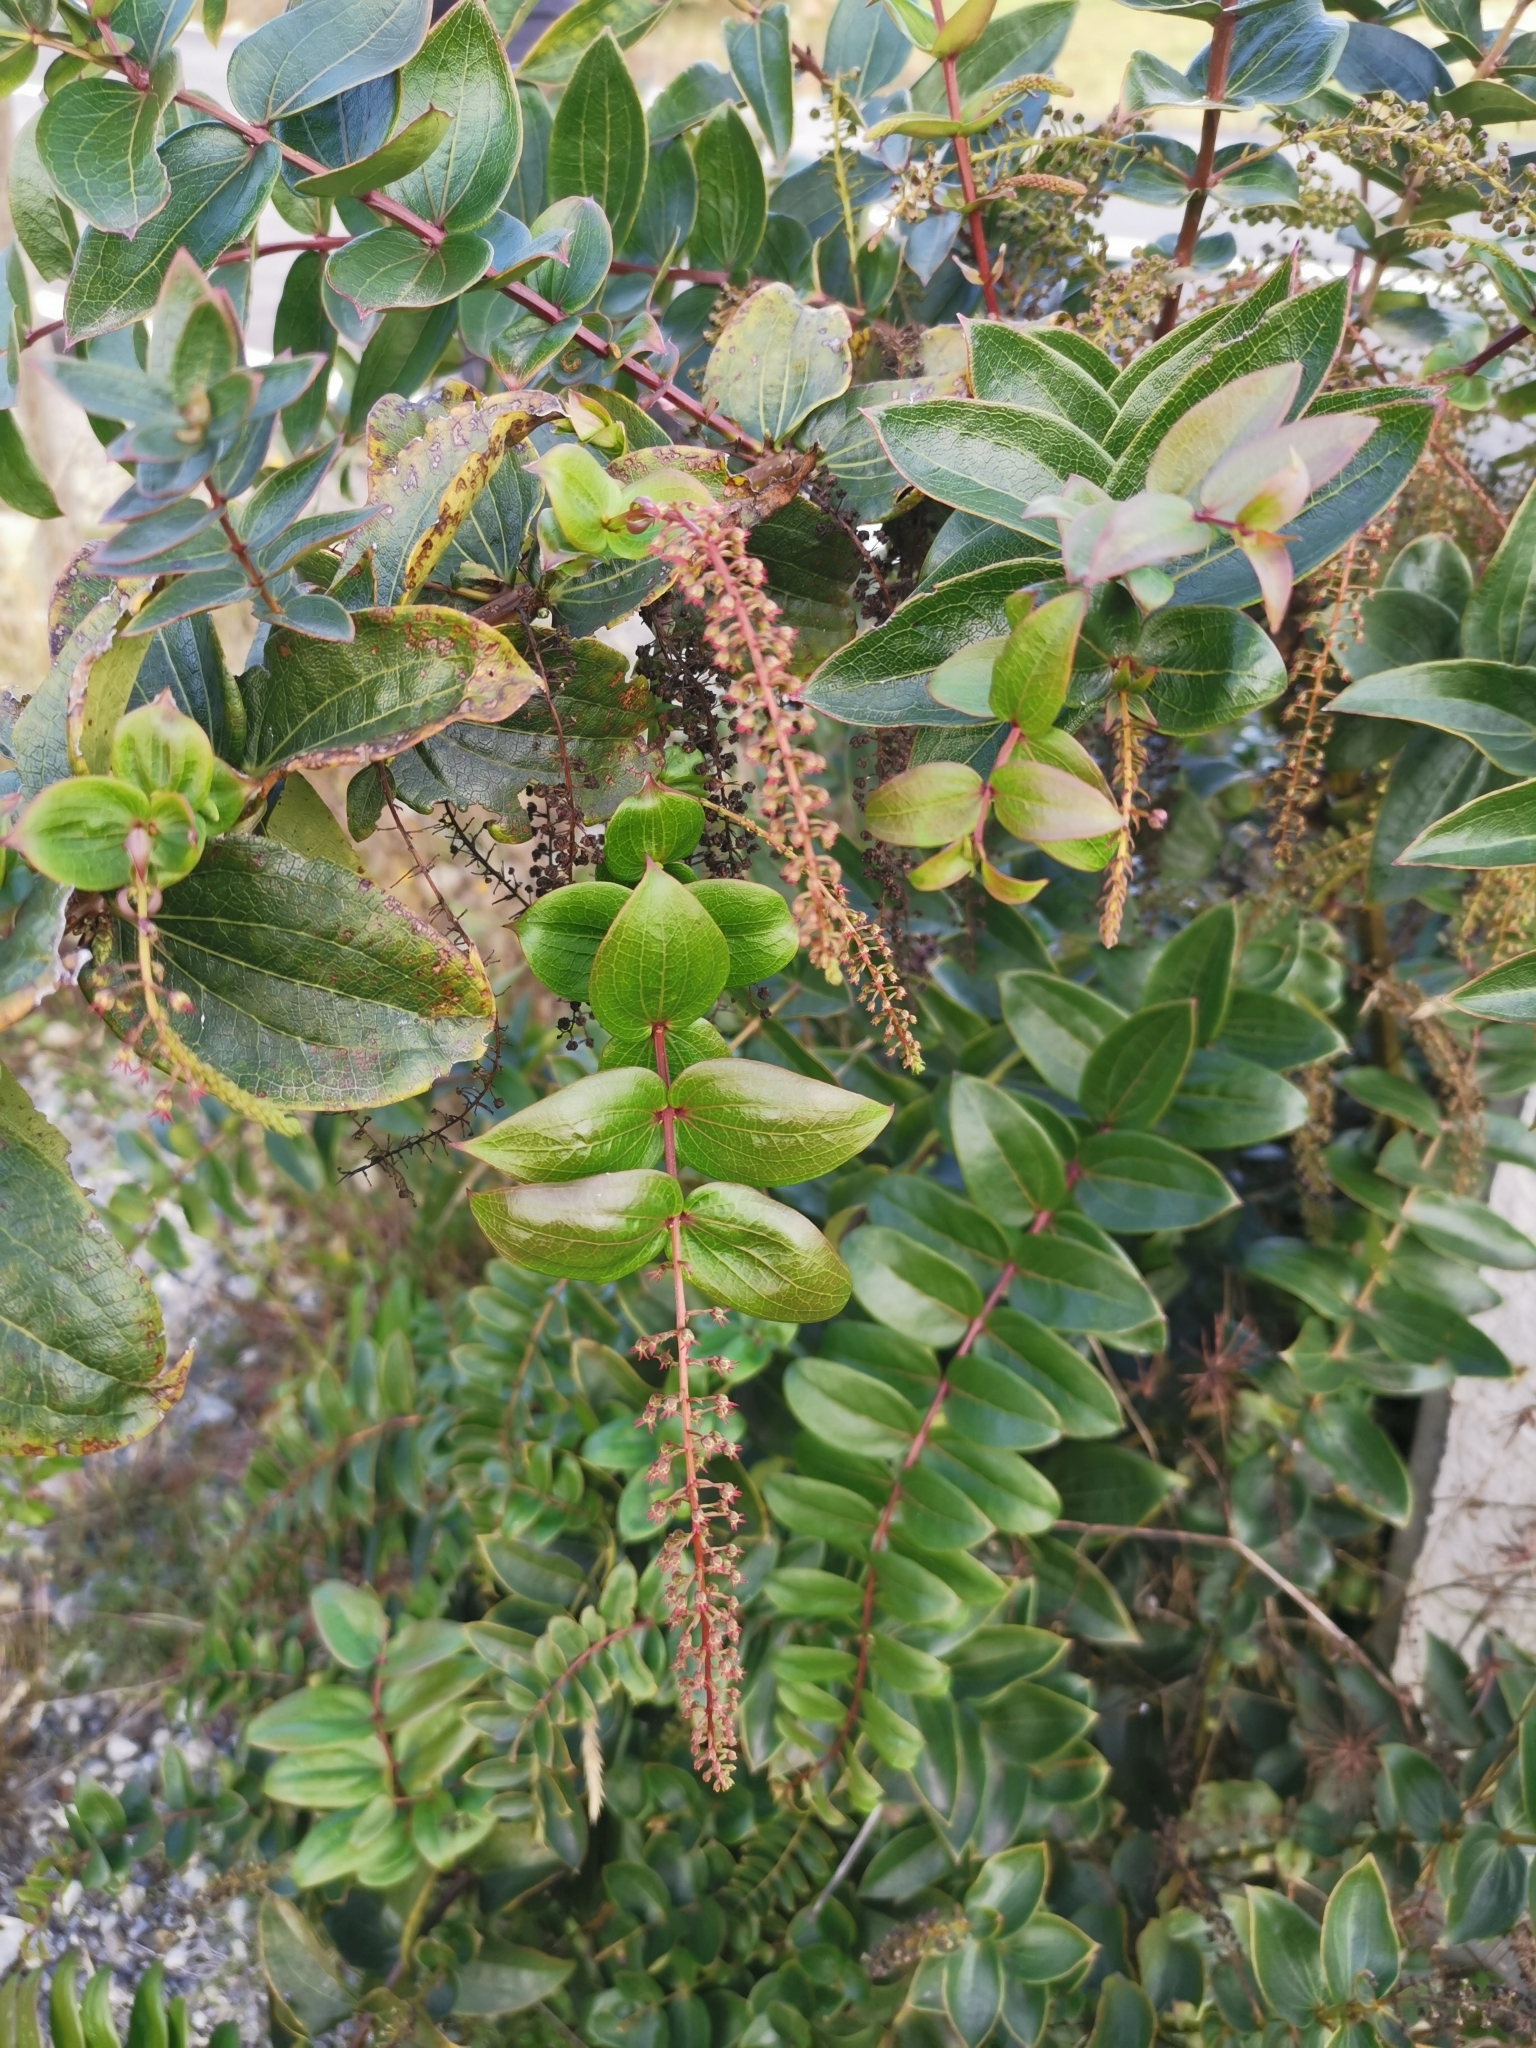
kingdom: Plantae
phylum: Tracheophyta
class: Magnoliopsida
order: Cucurbitales
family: Coriariaceae
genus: Coriaria
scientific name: Coriaria ruscifolia
